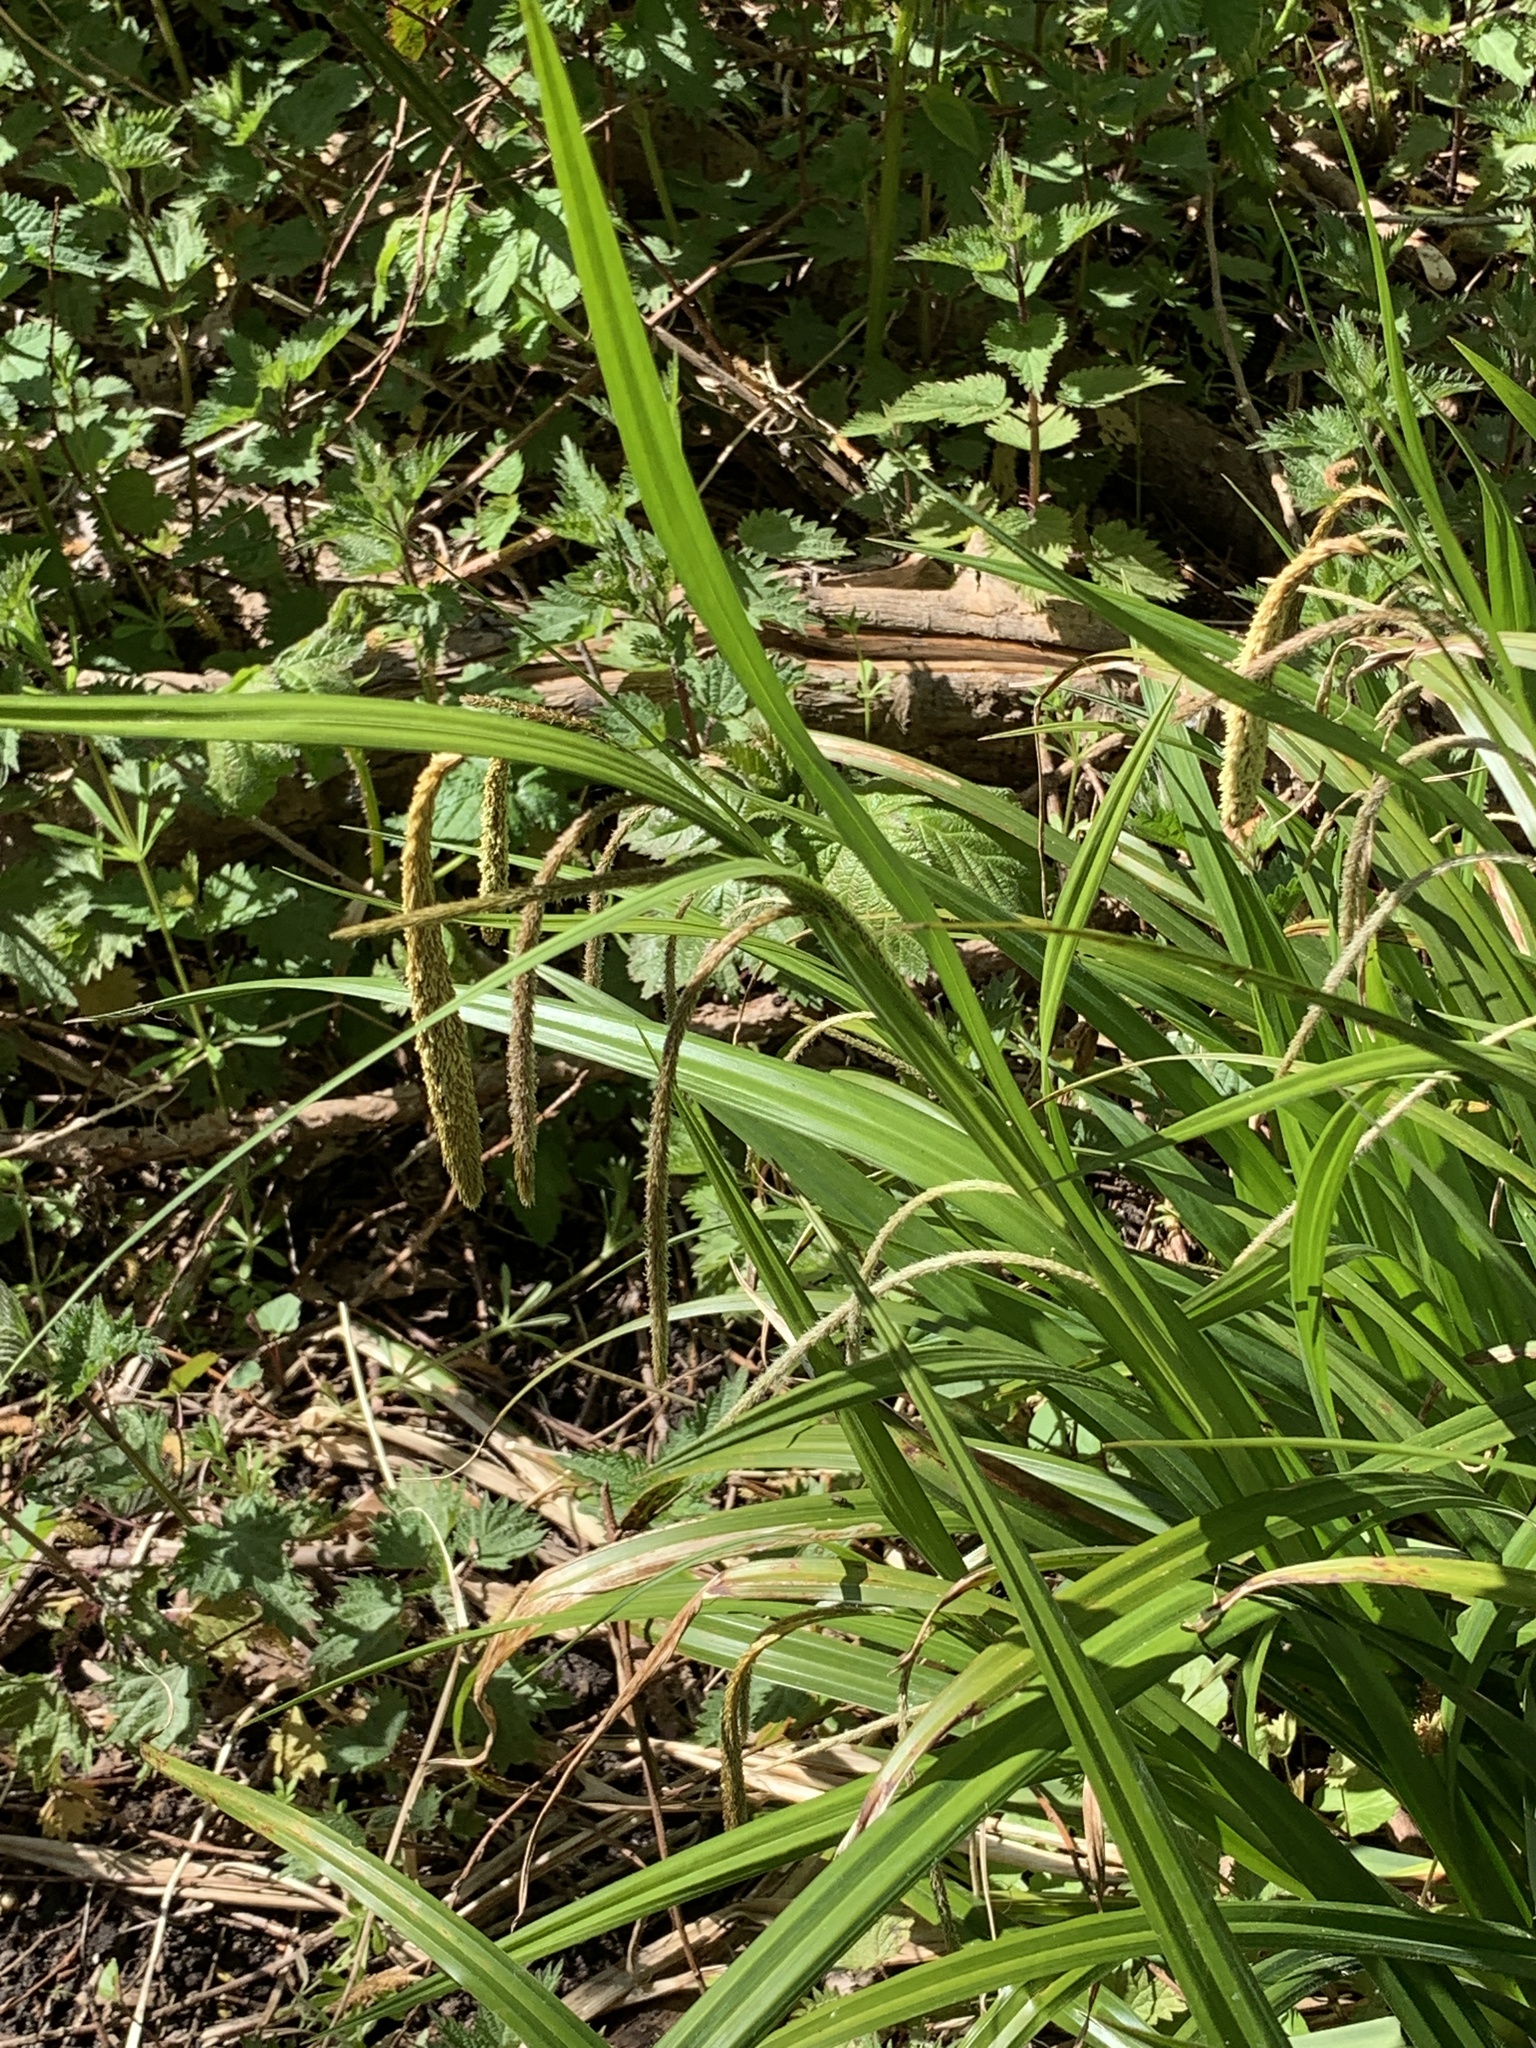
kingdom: Plantae
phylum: Tracheophyta
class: Liliopsida
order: Poales
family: Cyperaceae
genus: Carex
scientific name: Carex pendula
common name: Pendulous sedge
